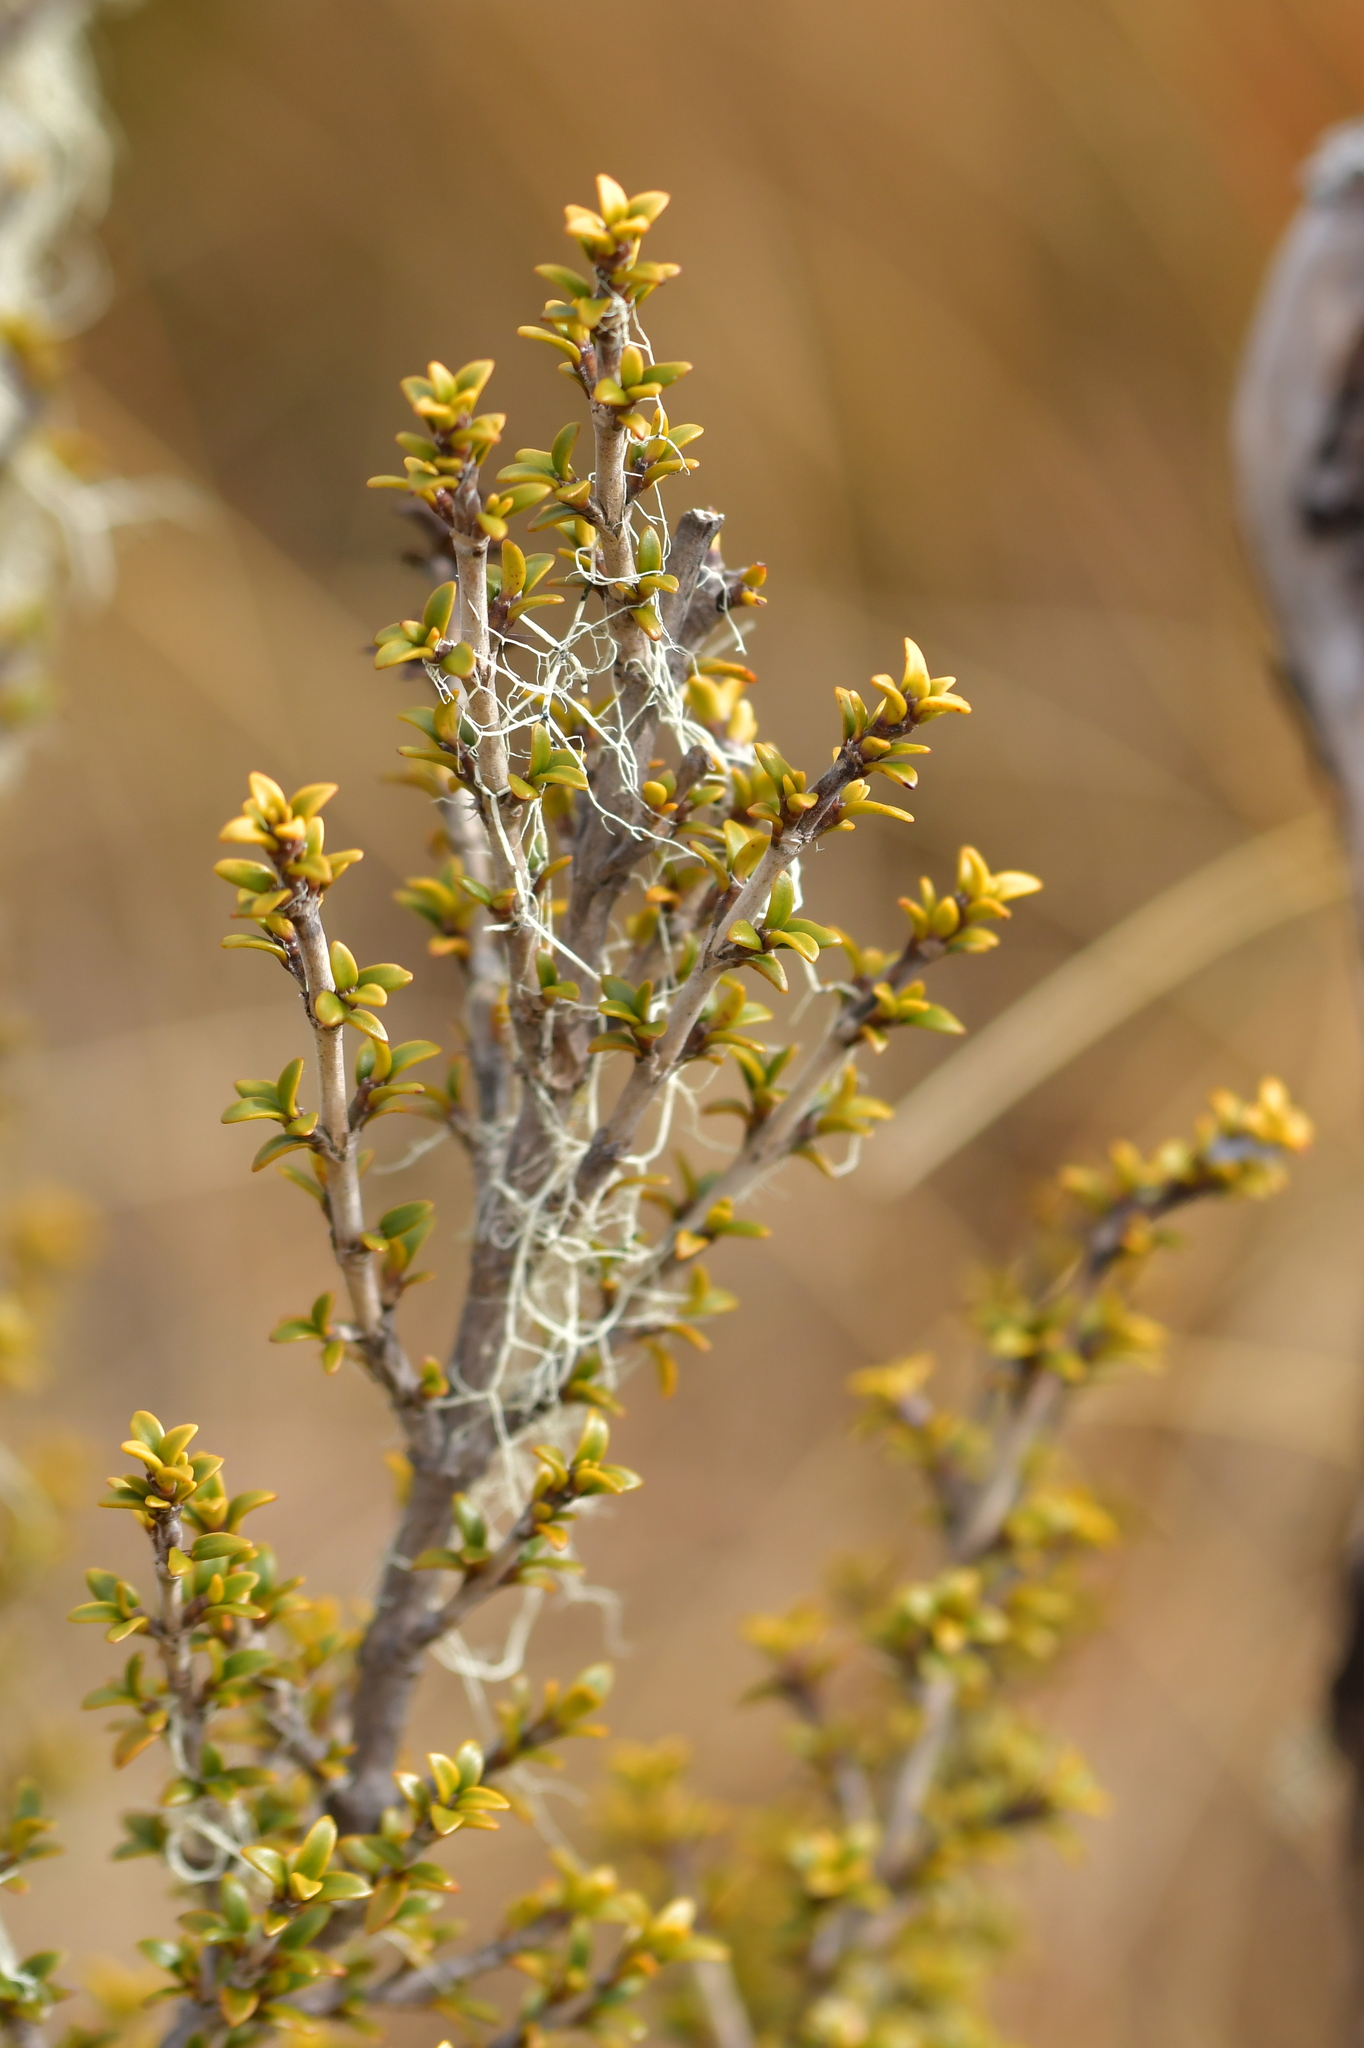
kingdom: Plantae
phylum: Tracheophyta
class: Magnoliopsida
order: Gentianales
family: Rubiaceae
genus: Coprosma
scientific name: Coprosma pseudocuneata
